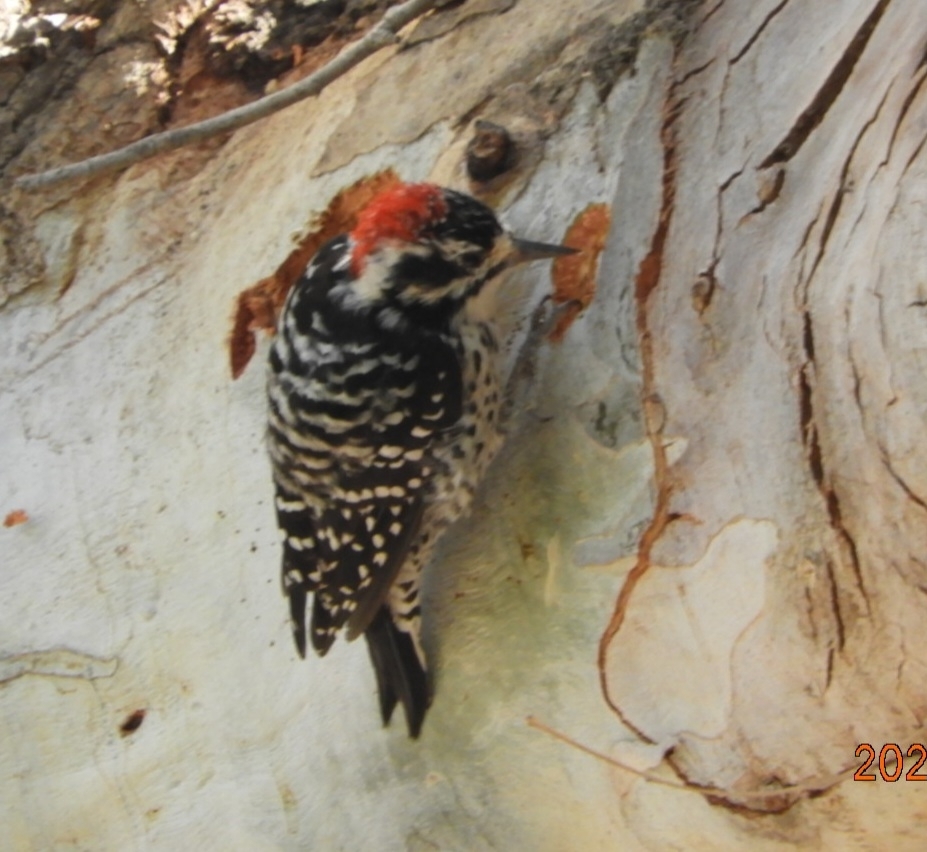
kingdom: Animalia
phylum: Chordata
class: Aves
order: Piciformes
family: Picidae
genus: Dryobates
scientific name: Dryobates nuttallii
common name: Nuttall's woodpecker
